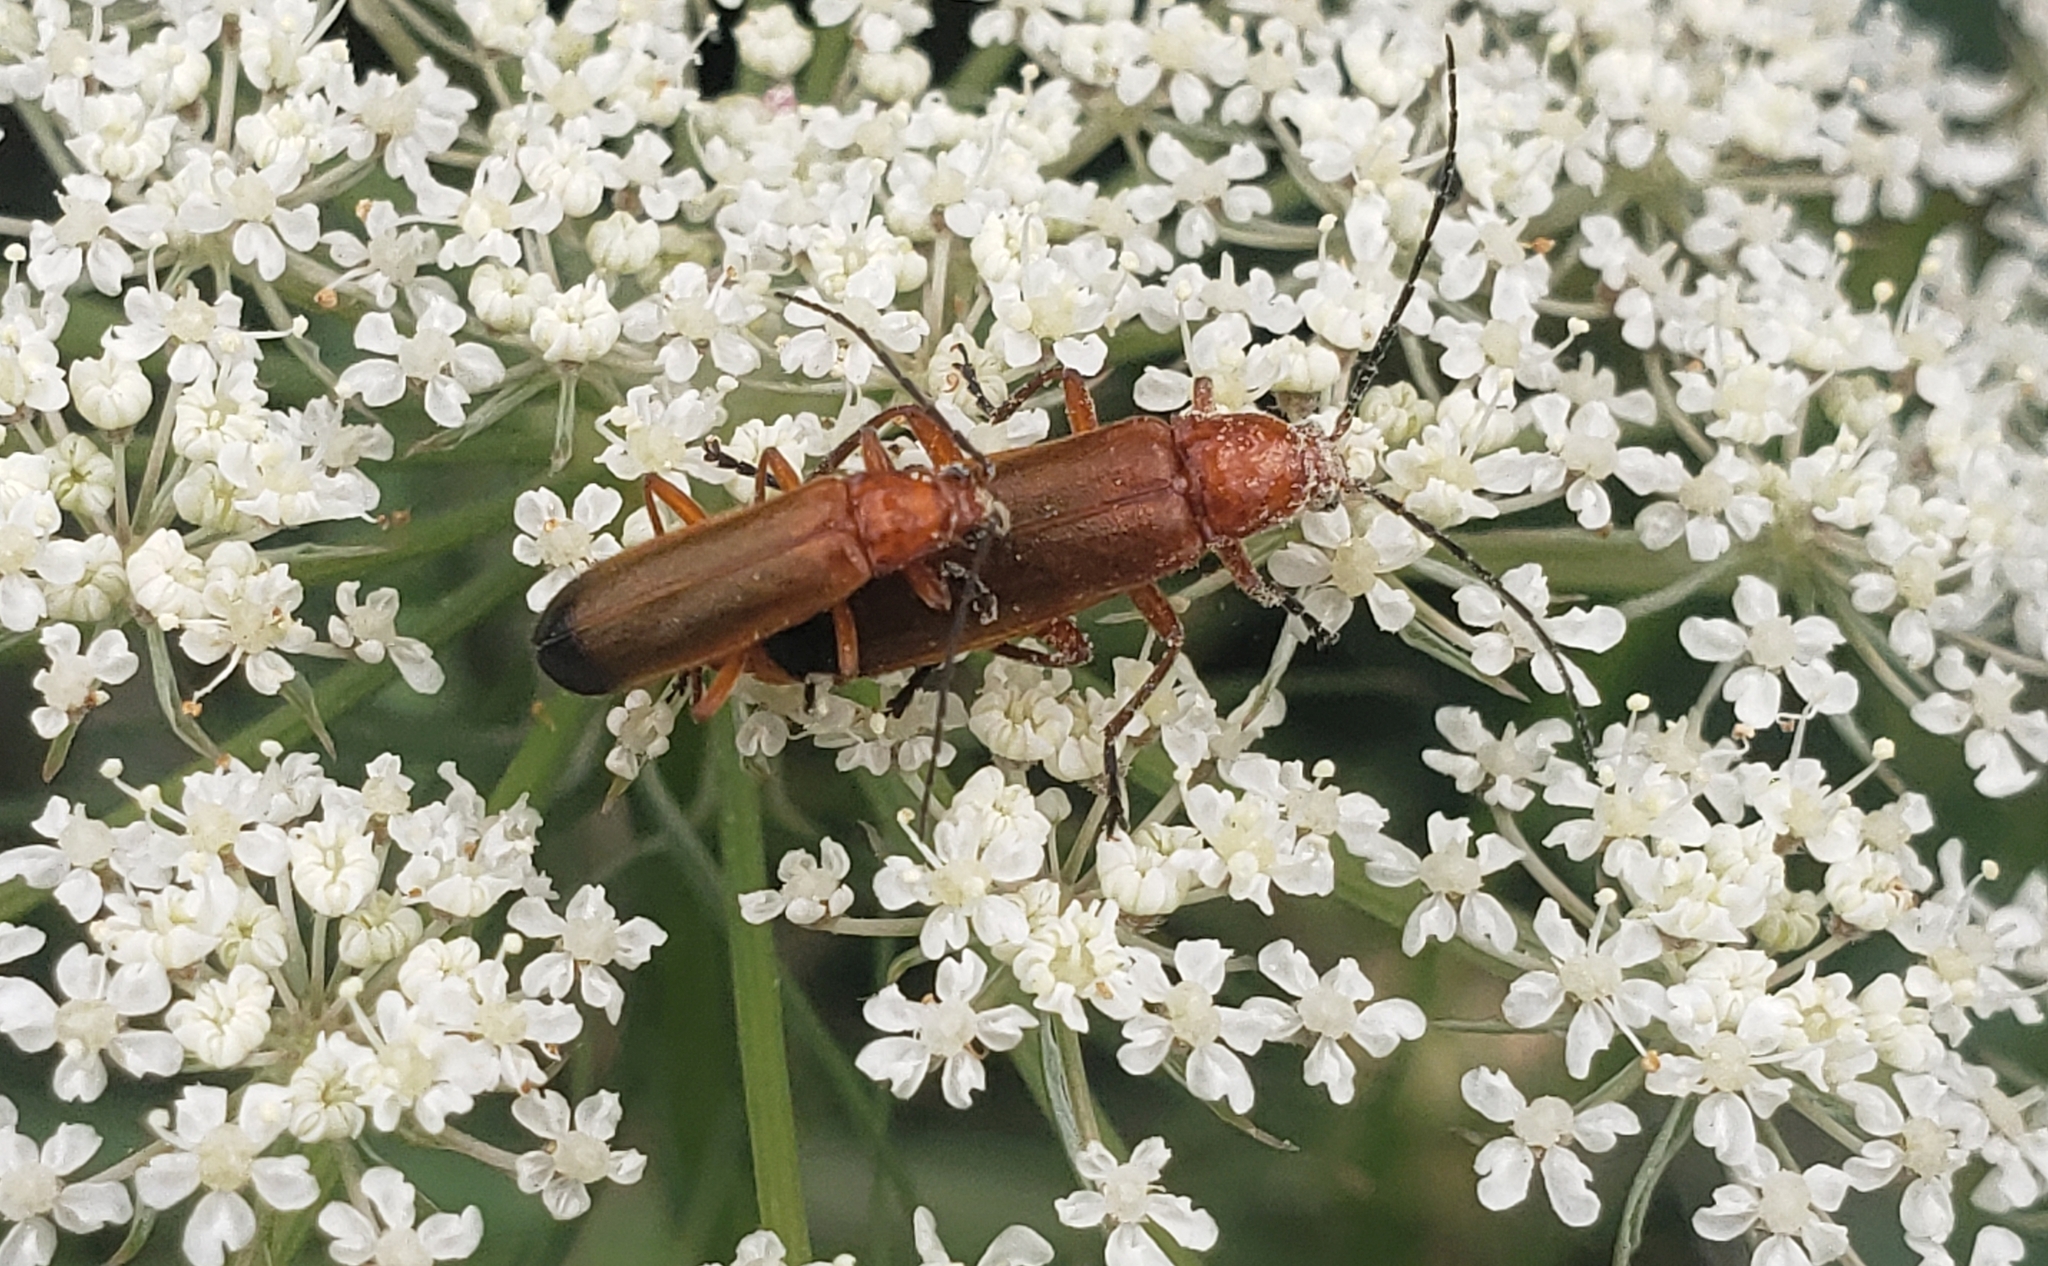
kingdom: Animalia
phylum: Arthropoda
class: Insecta
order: Coleoptera
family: Cantharidae
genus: Rhagonycha
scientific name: Rhagonycha fulva
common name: Common red soldier beetle
